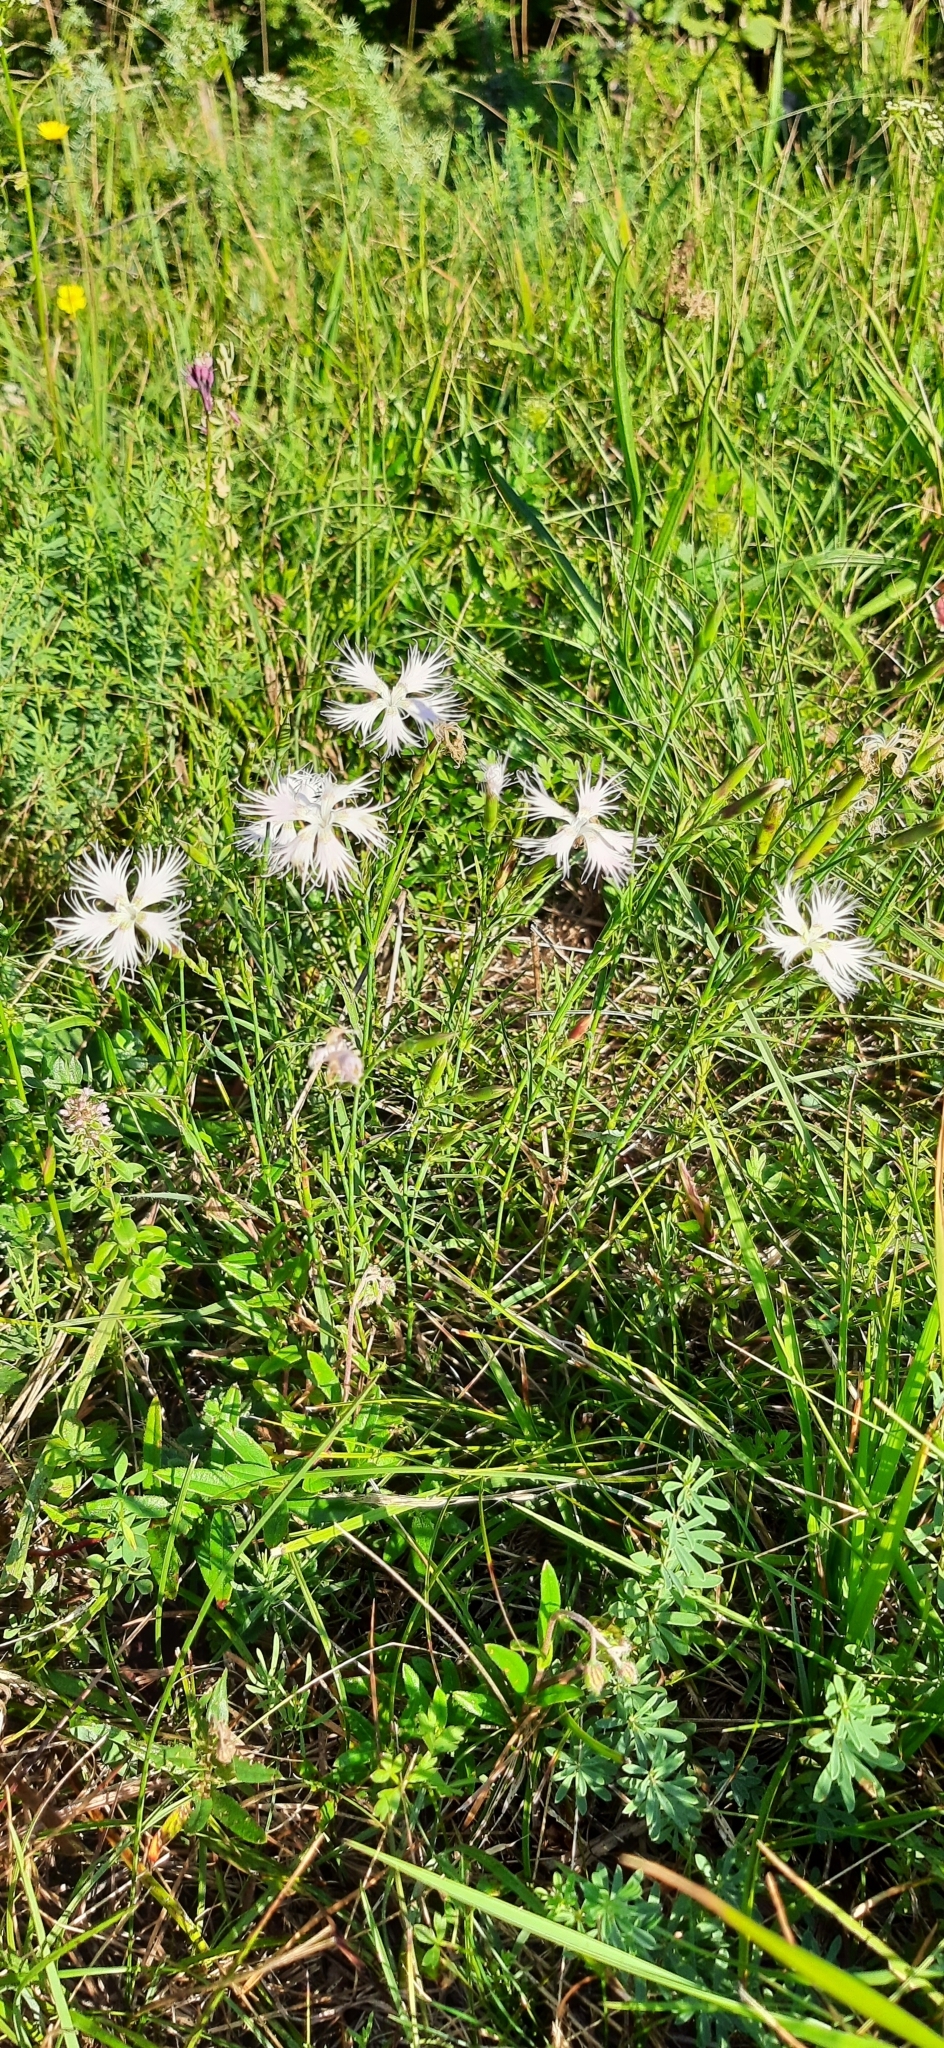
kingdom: Plantae
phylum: Tracheophyta
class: Magnoliopsida
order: Caryophyllales
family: Caryophyllaceae
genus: Dianthus
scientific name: Dianthus hyssopifolius
